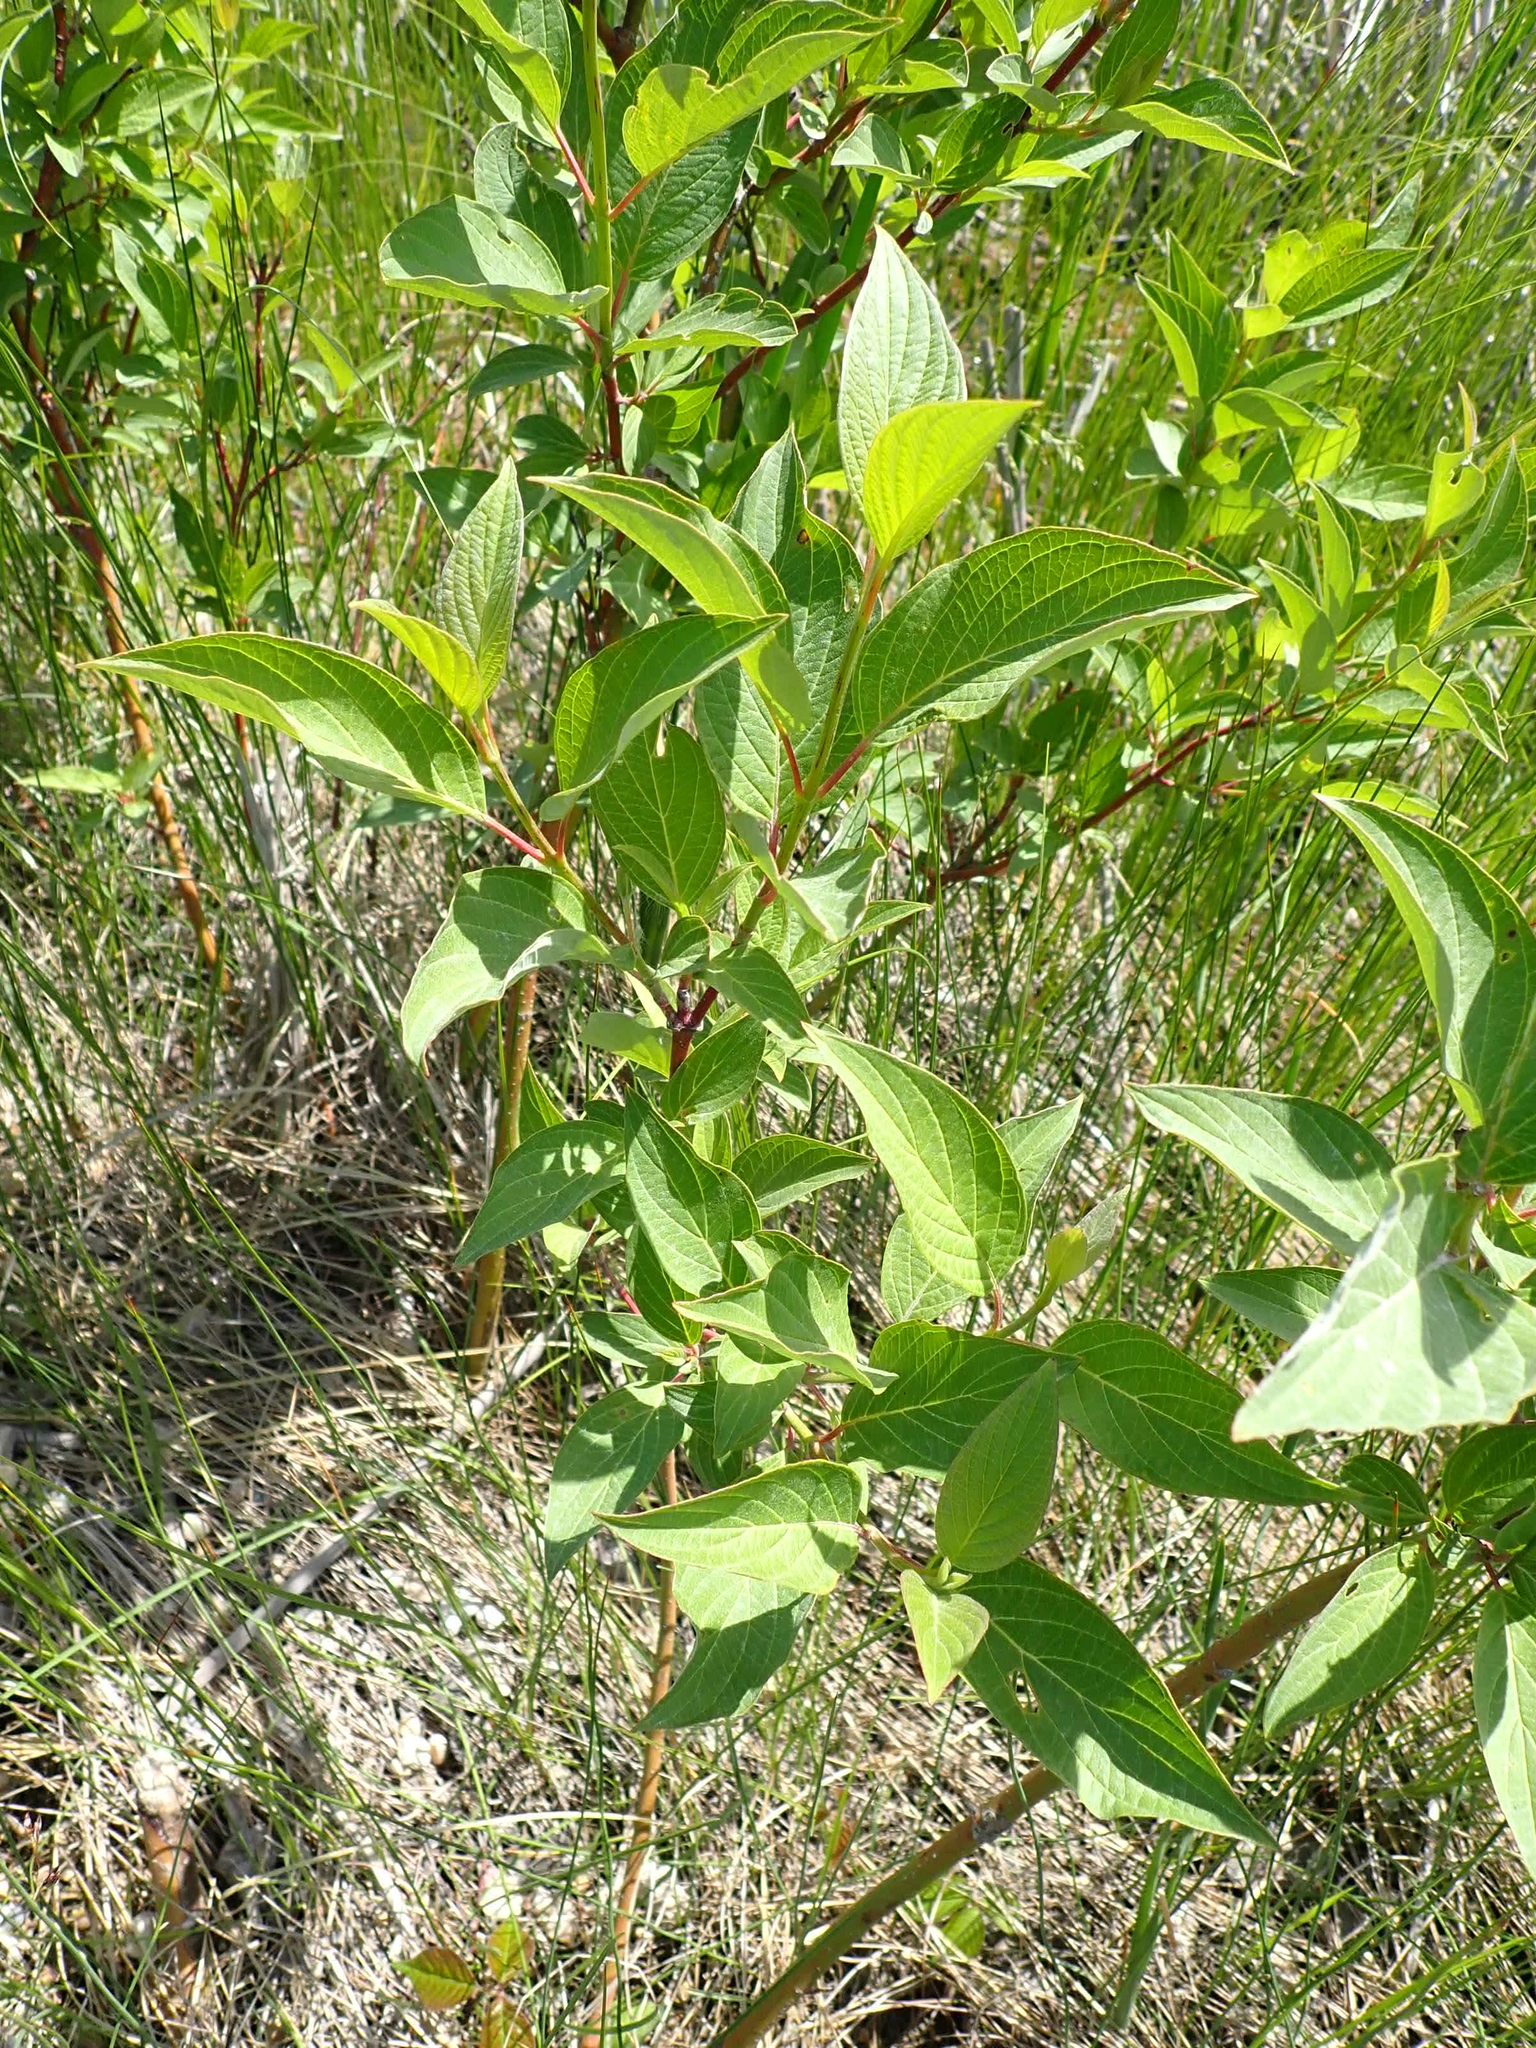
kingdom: Plantae
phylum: Tracheophyta
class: Magnoliopsida
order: Cornales
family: Cornaceae
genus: Cornus
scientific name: Cornus sericea
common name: Red-osier dogwood
